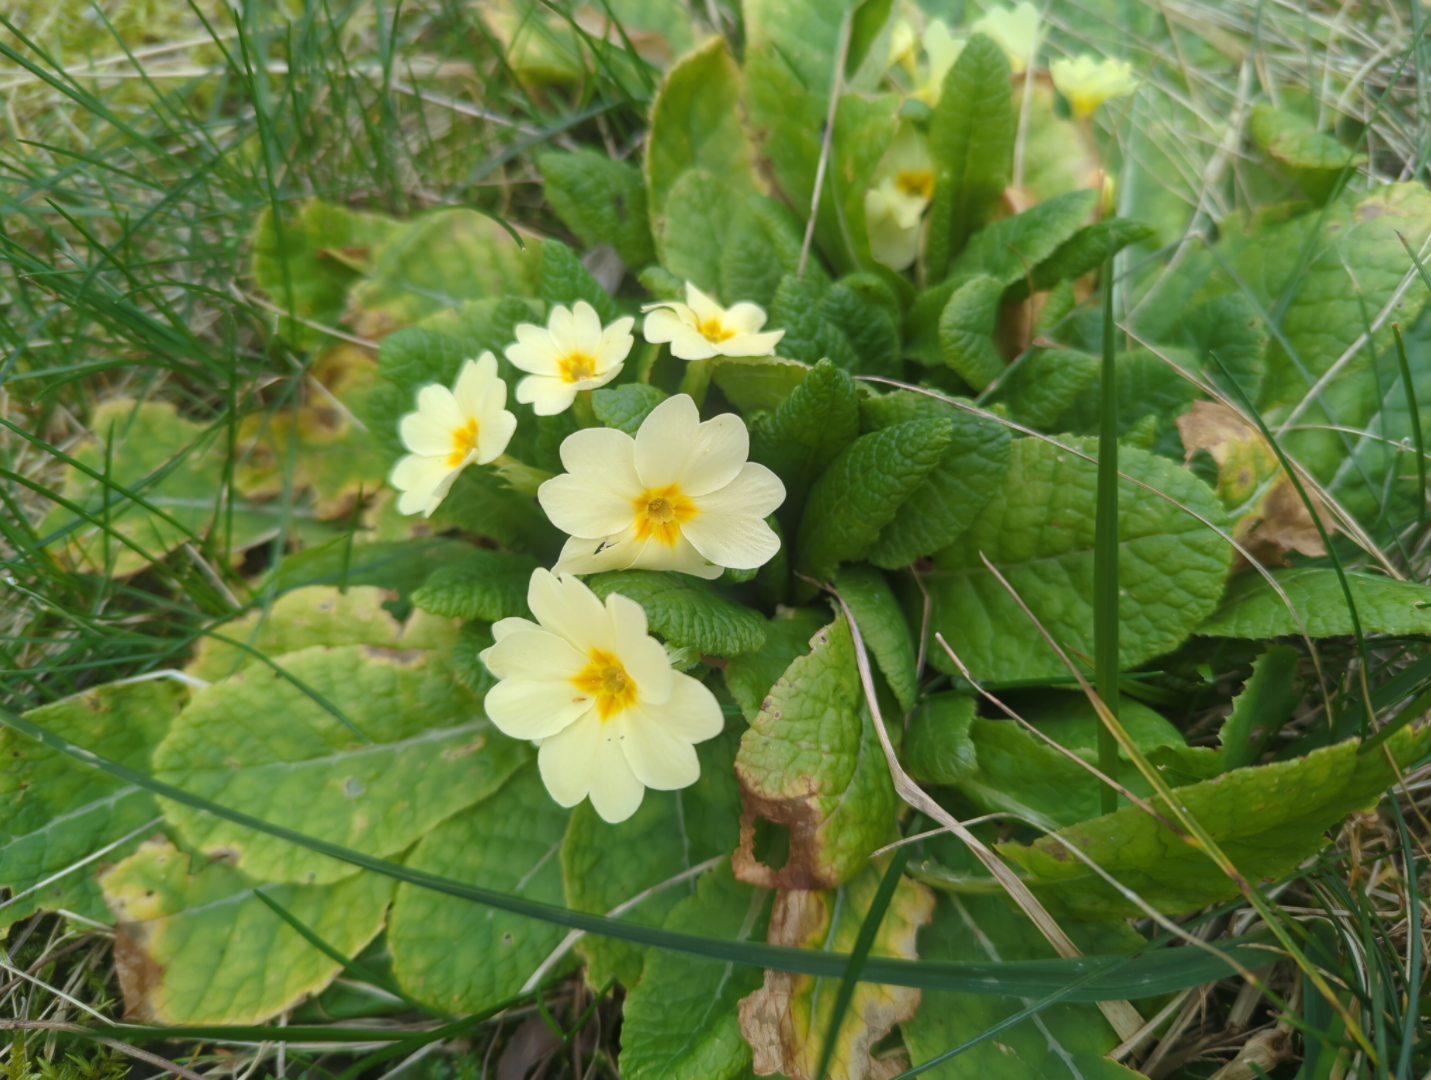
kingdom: Plantae
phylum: Tracheophyta
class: Magnoliopsida
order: Ericales
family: Primulaceae
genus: Primula
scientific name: Primula vulgaris
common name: Primrose
